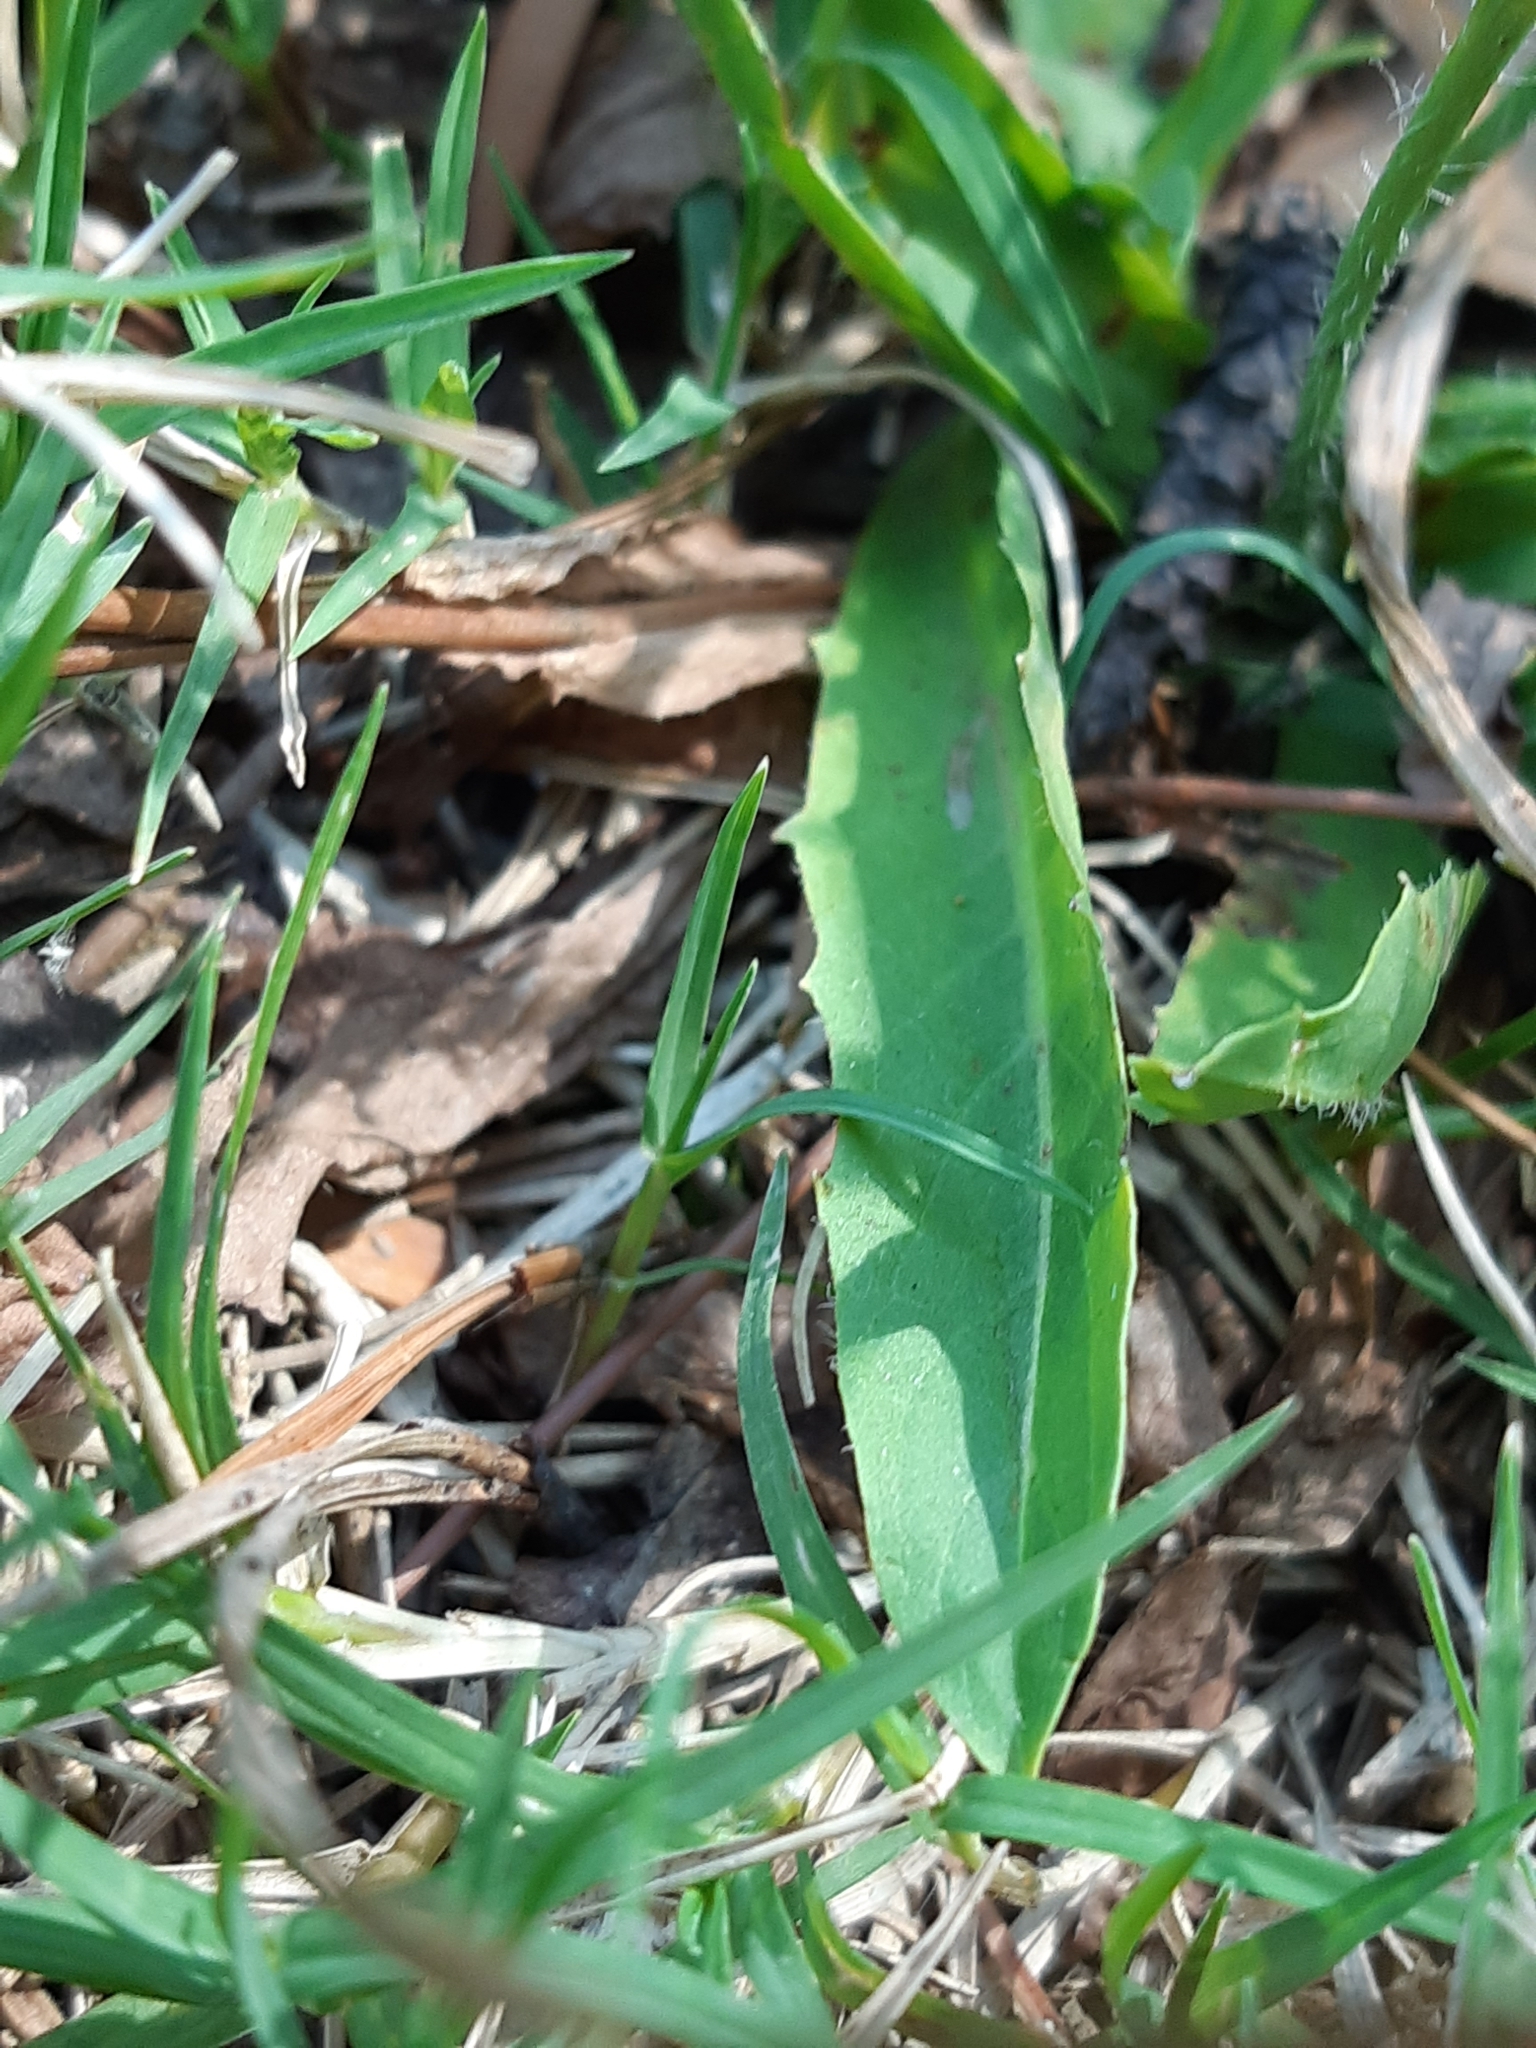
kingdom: Plantae
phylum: Tracheophyta
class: Magnoliopsida
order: Asterales
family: Asteraceae
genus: Hypochaeris
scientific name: Hypochaeris albiflora
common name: White flatweed
